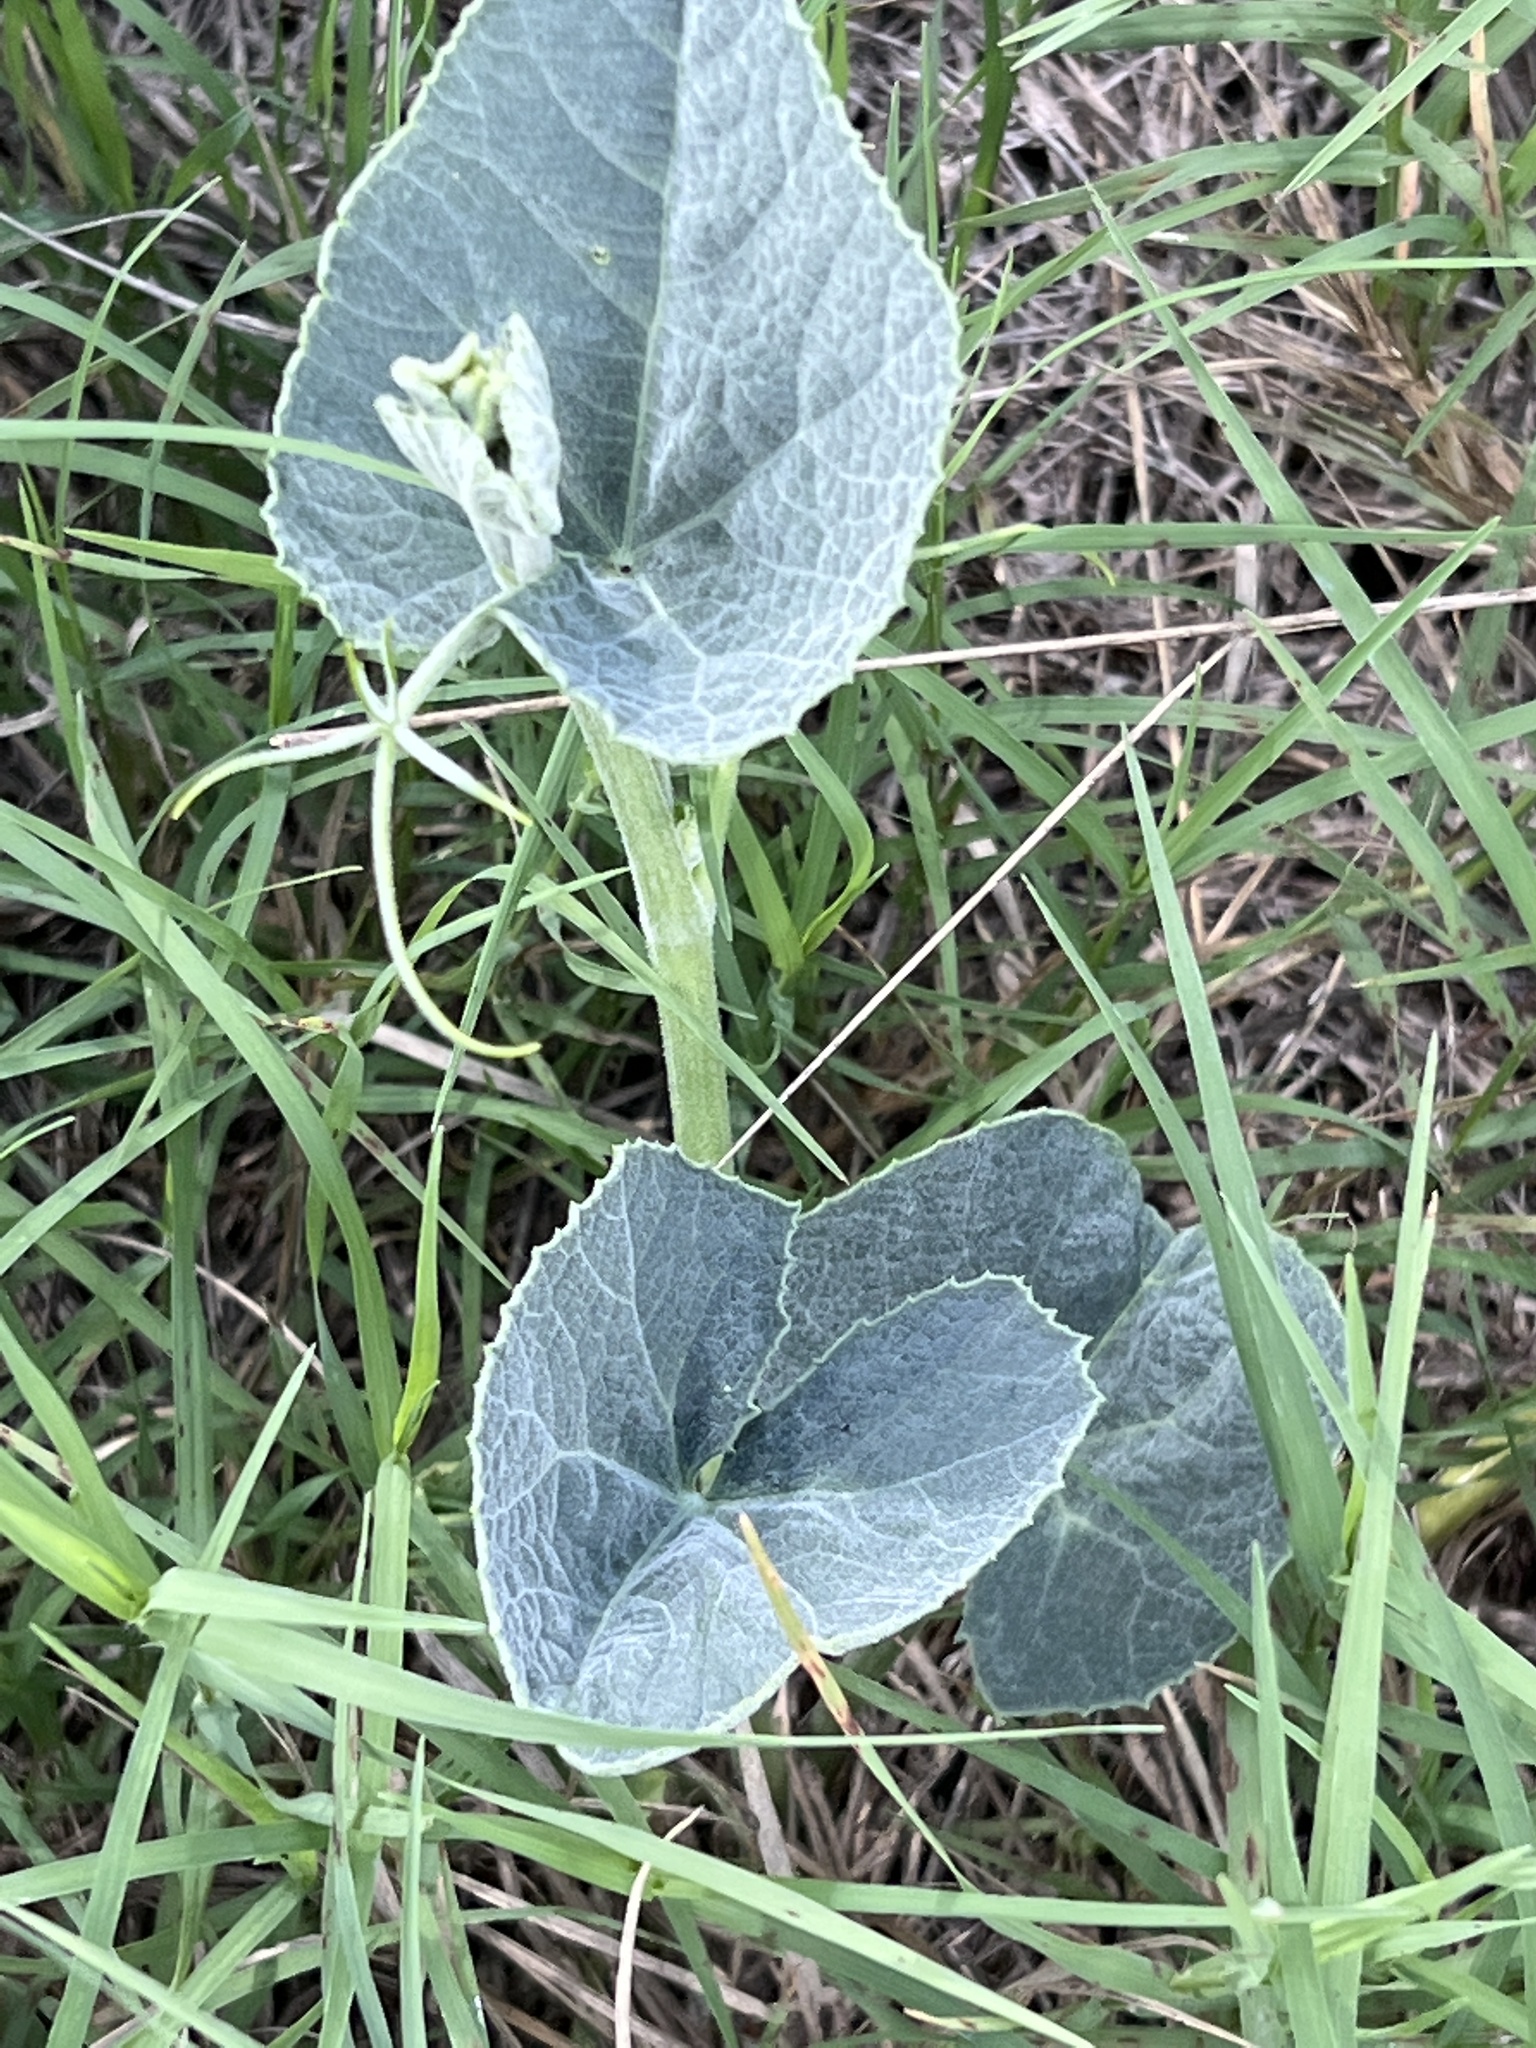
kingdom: Plantae
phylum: Tracheophyta
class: Magnoliopsida
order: Cucurbitales
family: Cucurbitaceae
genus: Cucurbita
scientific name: Cucurbita foetidissima
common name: Buffalo gourd
